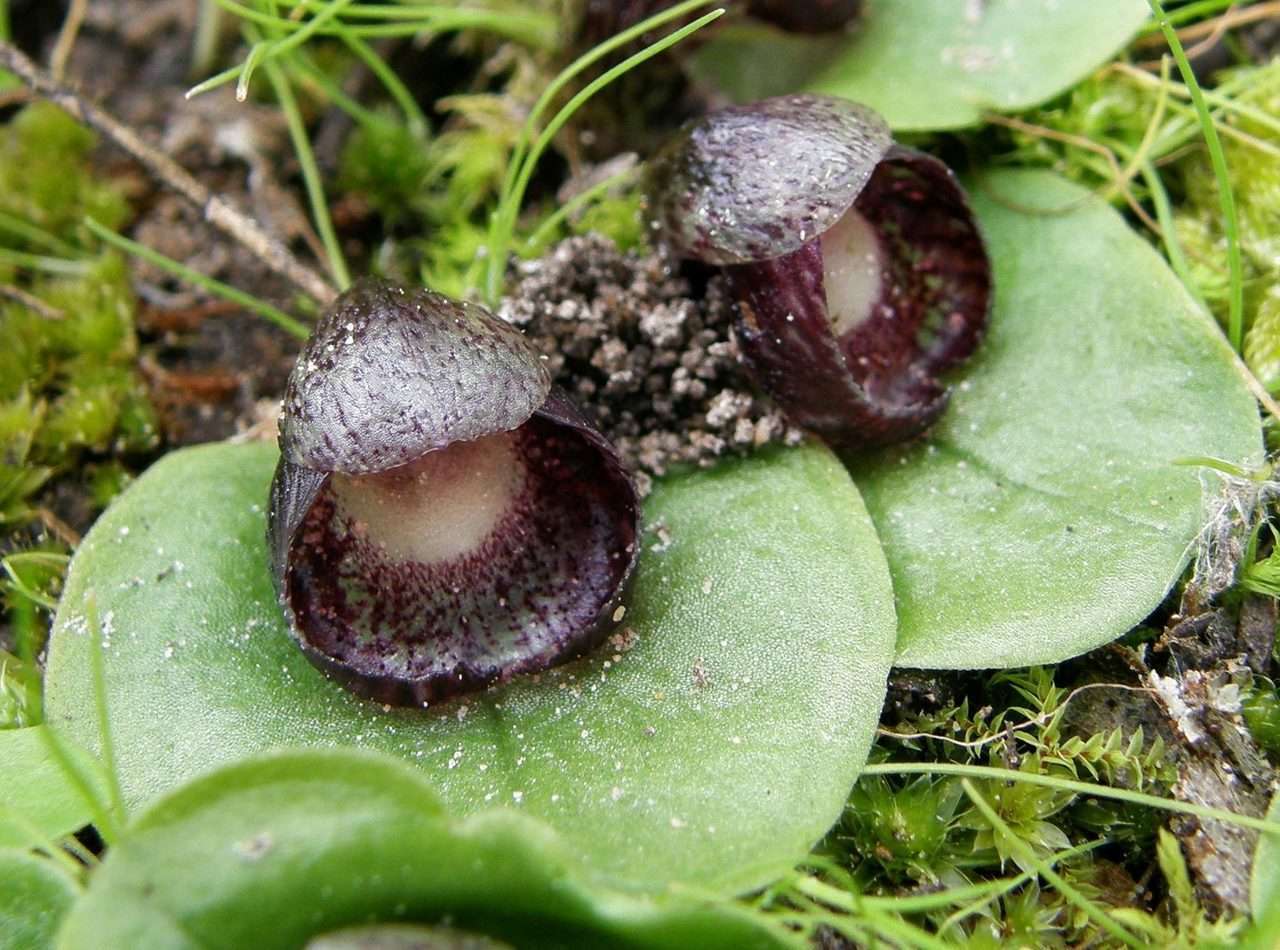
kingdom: Plantae
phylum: Tracheophyta
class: Liliopsida
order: Asparagales
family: Orchidaceae
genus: Corybas
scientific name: Corybas incurvus
